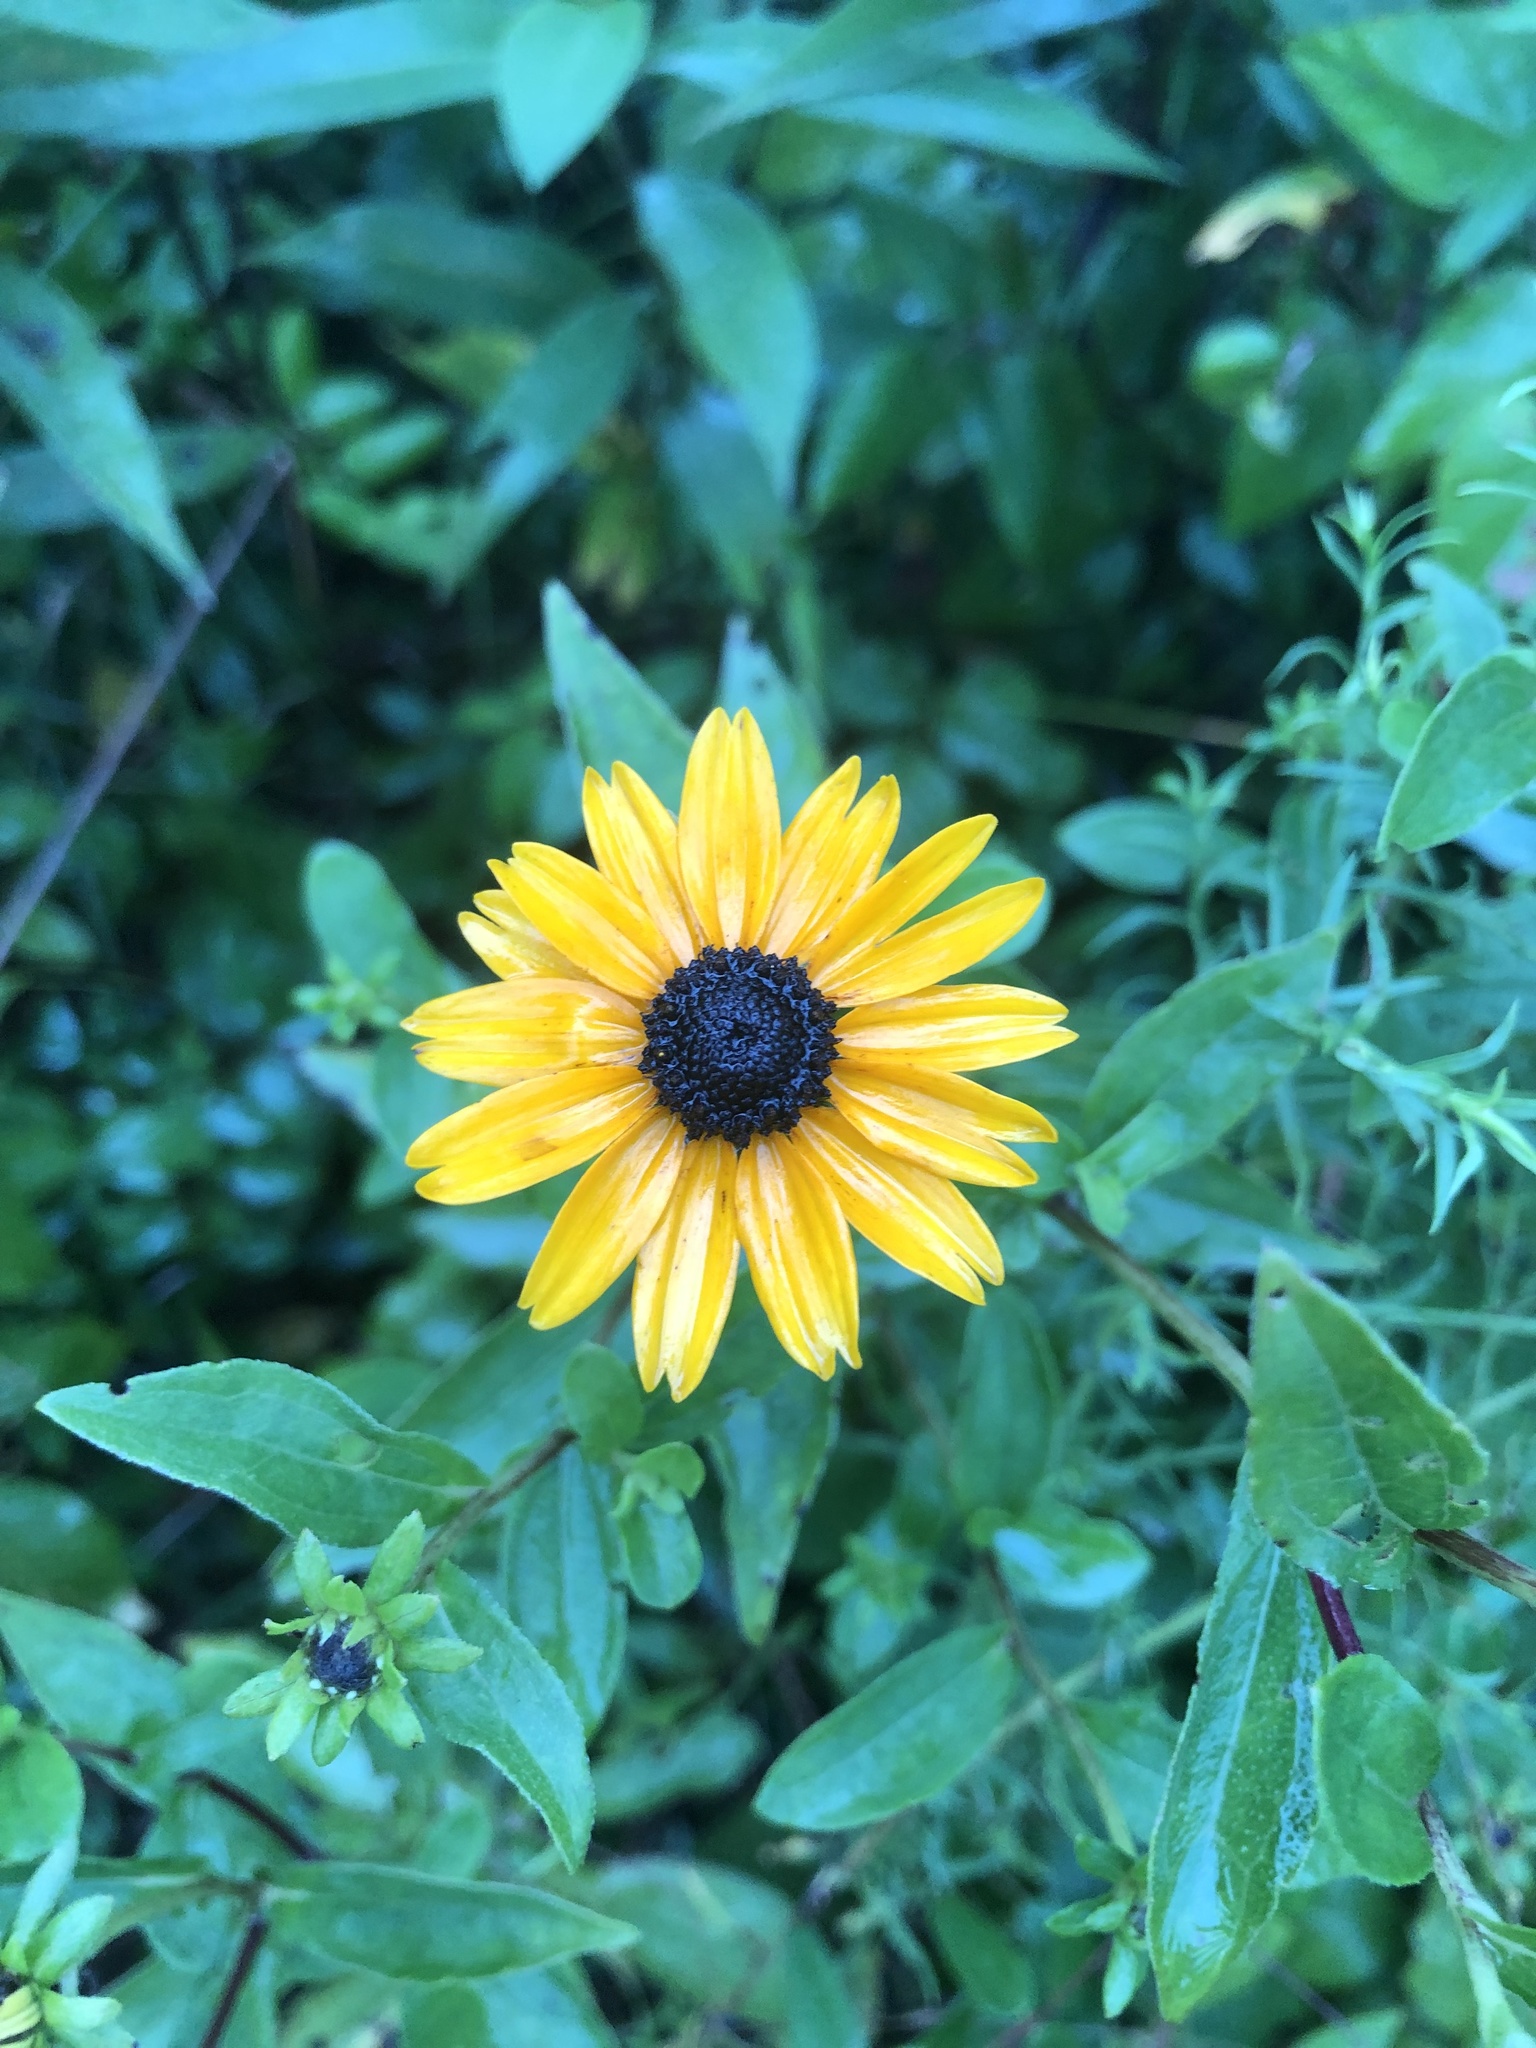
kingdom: Plantae
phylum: Tracheophyta
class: Magnoliopsida
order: Asterales
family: Asteraceae
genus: Rudbeckia
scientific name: Rudbeckia terranigrae
